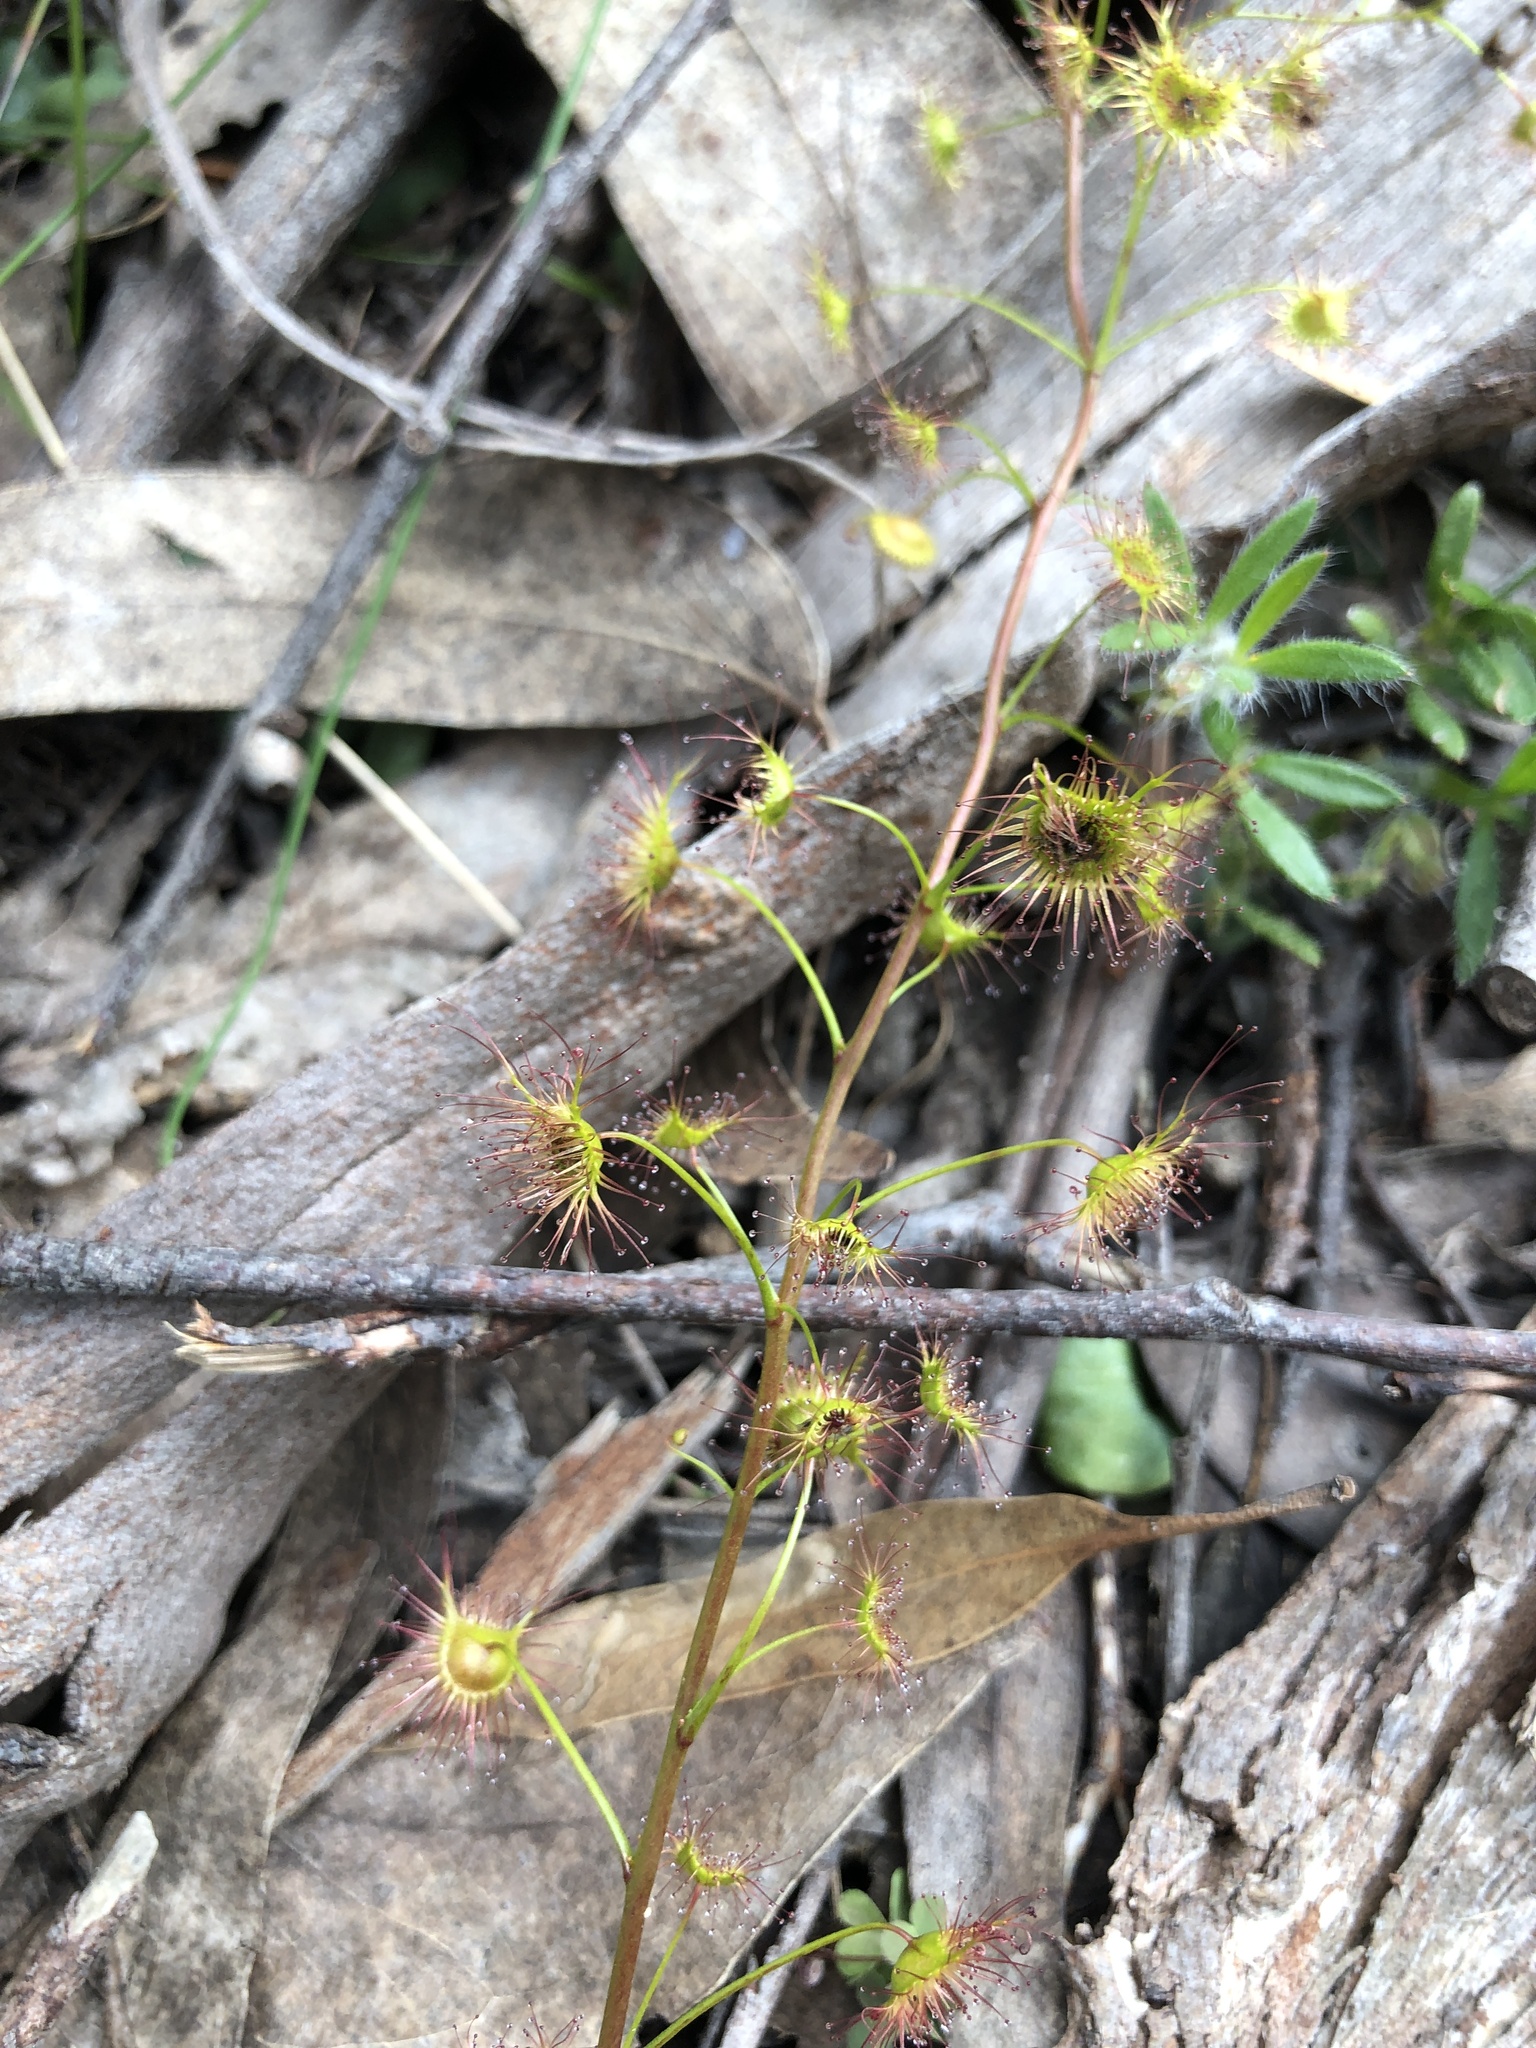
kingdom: Plantae
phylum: Tracheophyta
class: Magnoliopsida
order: Caryophyllales
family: Droseraceae
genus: Drosera
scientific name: Drosera peltata
